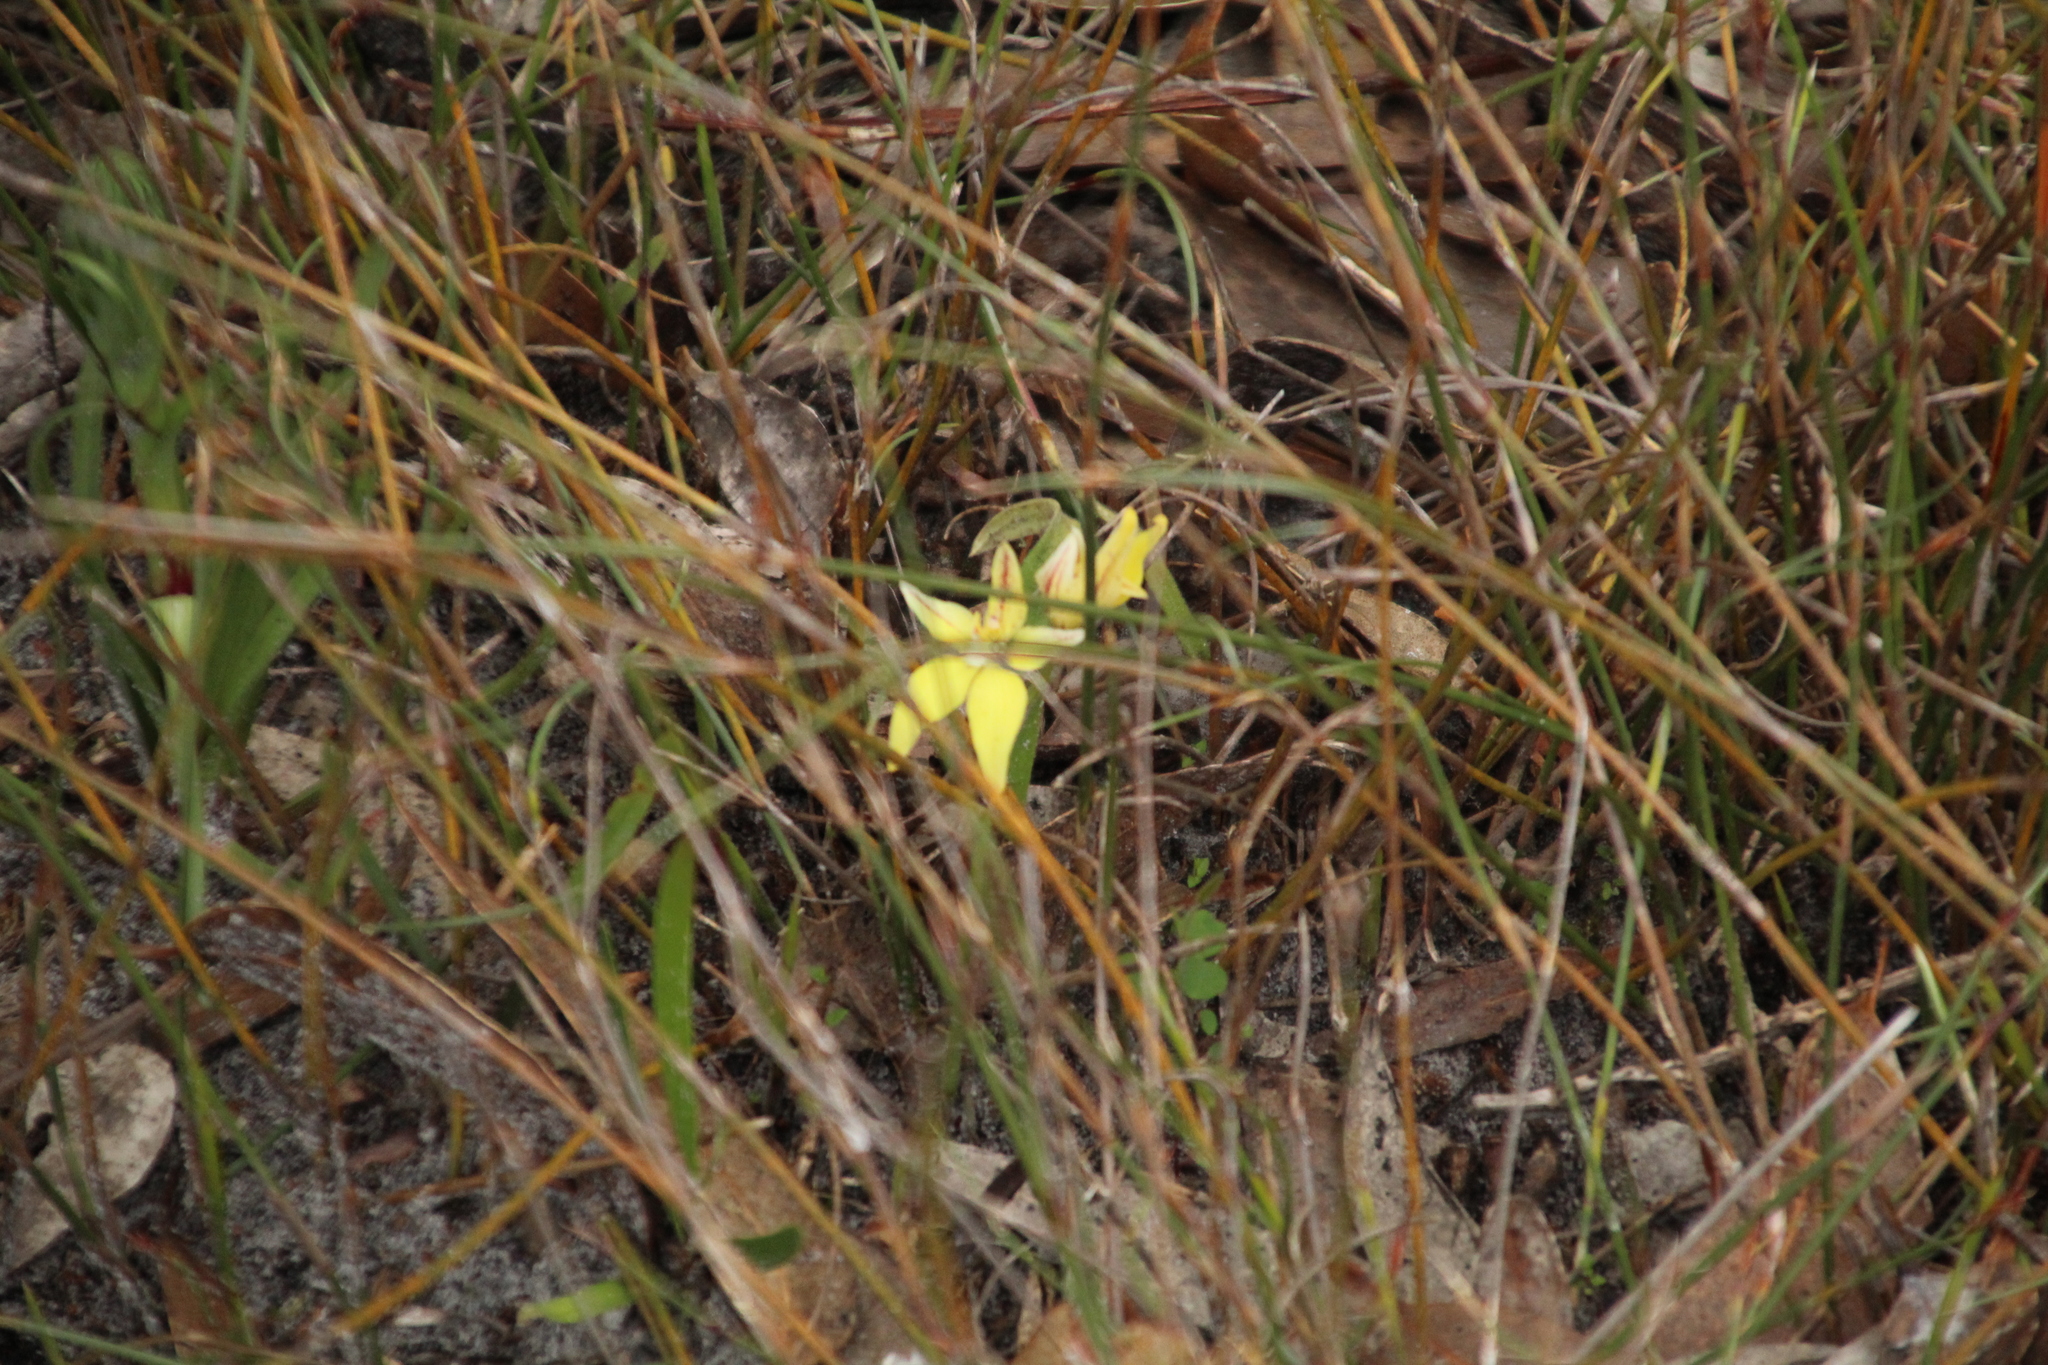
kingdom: Plantae
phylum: Tracheophyta
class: Liliopsida
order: Asparagales
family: Orchidaceae
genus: Caladenia
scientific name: Caladenia flava
